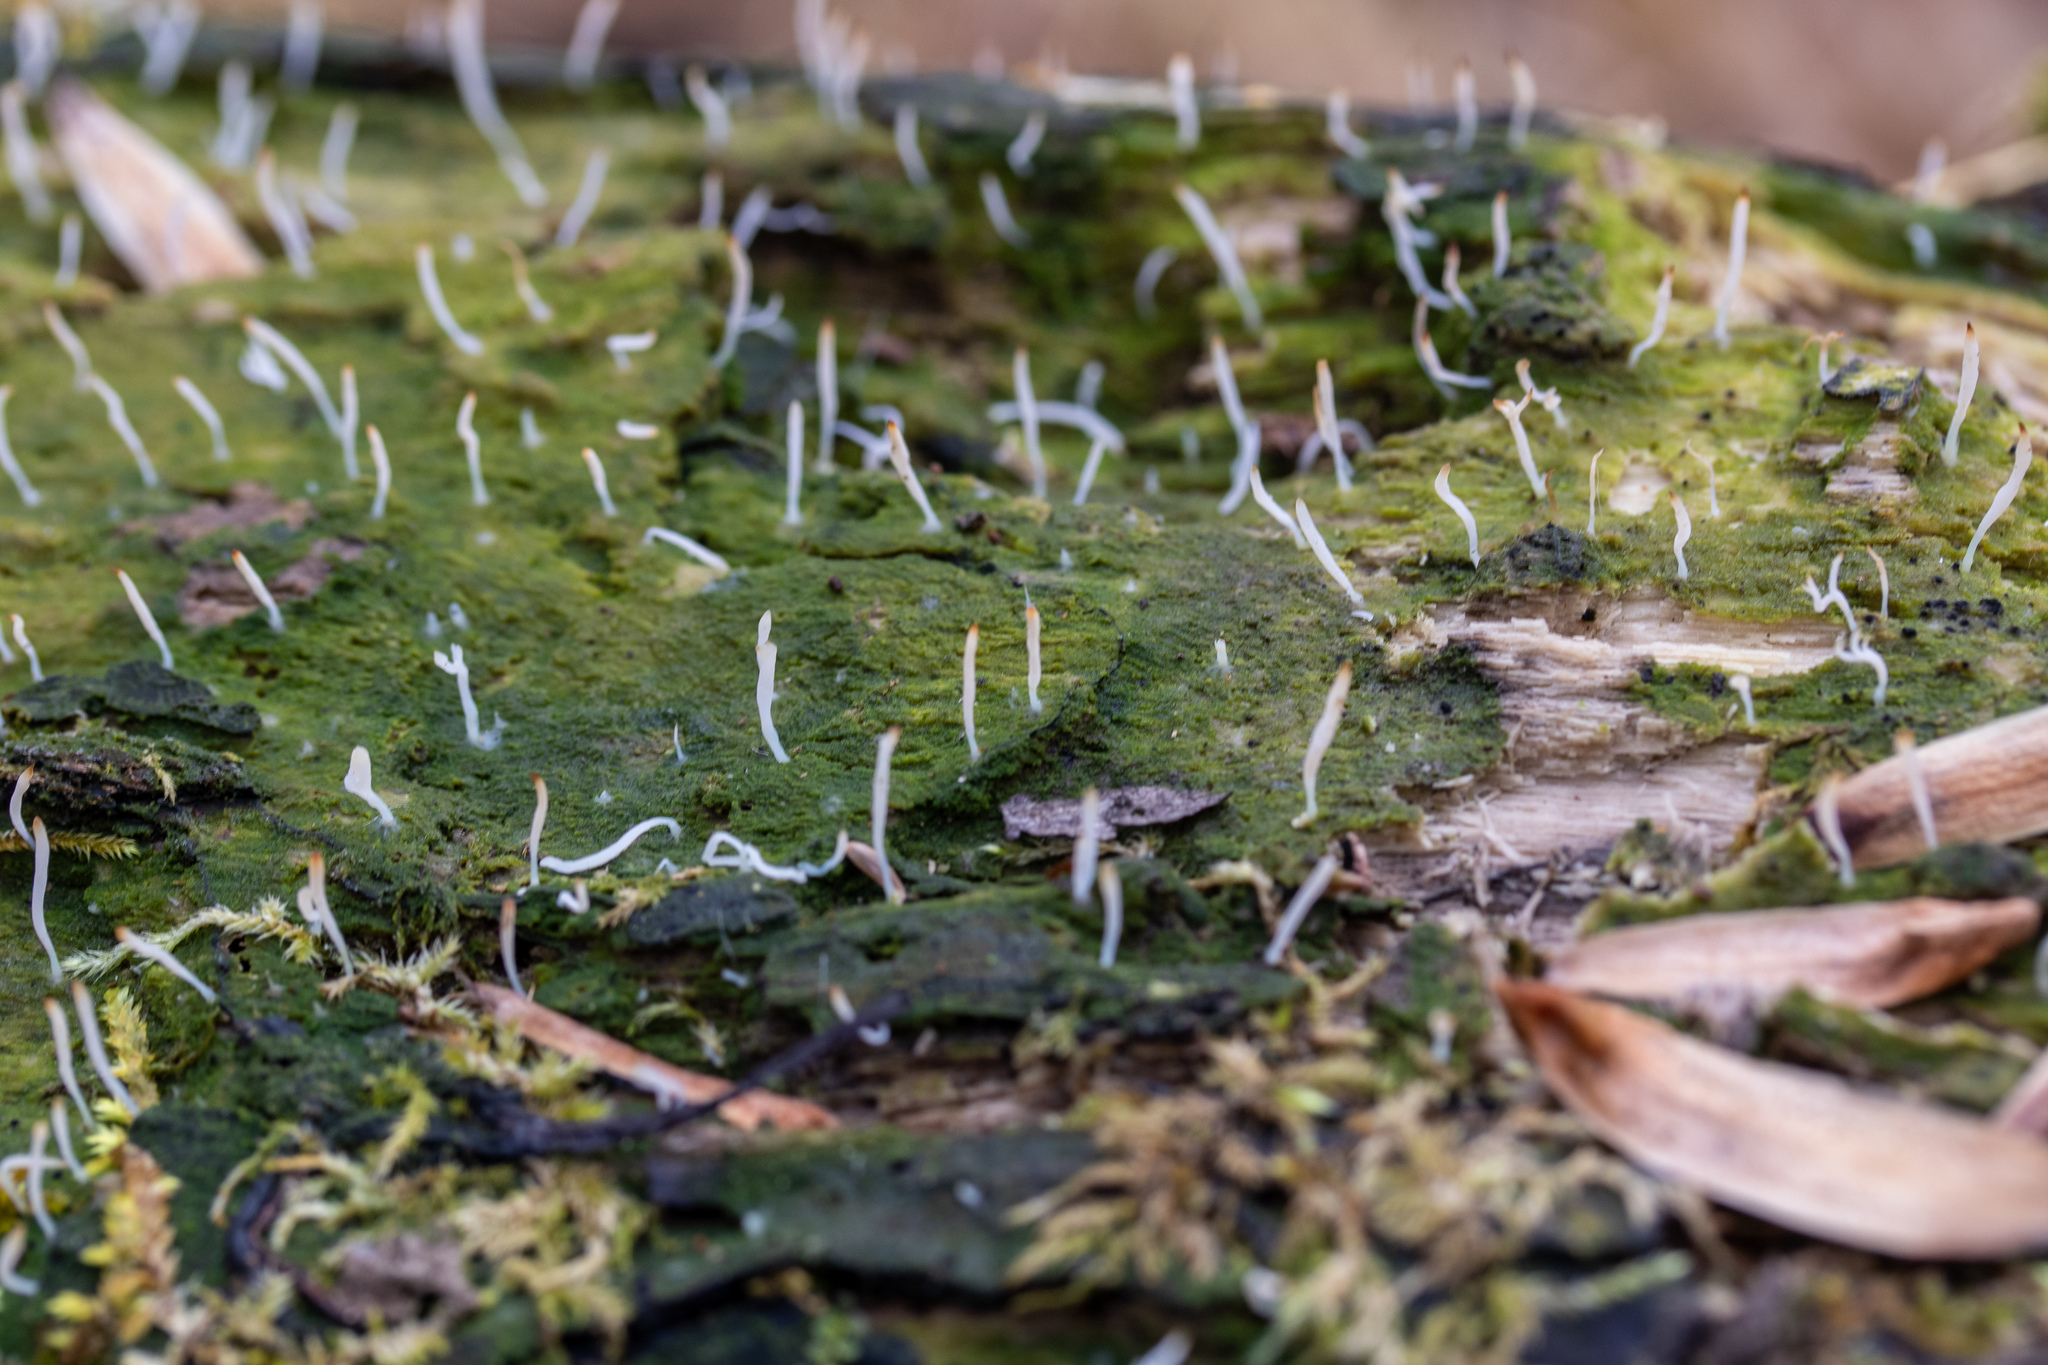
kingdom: Fungi
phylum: Basidiomycota
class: Agaricomycetes
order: Cantharellales
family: Hydnaceae
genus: Multiclavula
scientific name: Multiclavula mucida
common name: White green-algae coral
